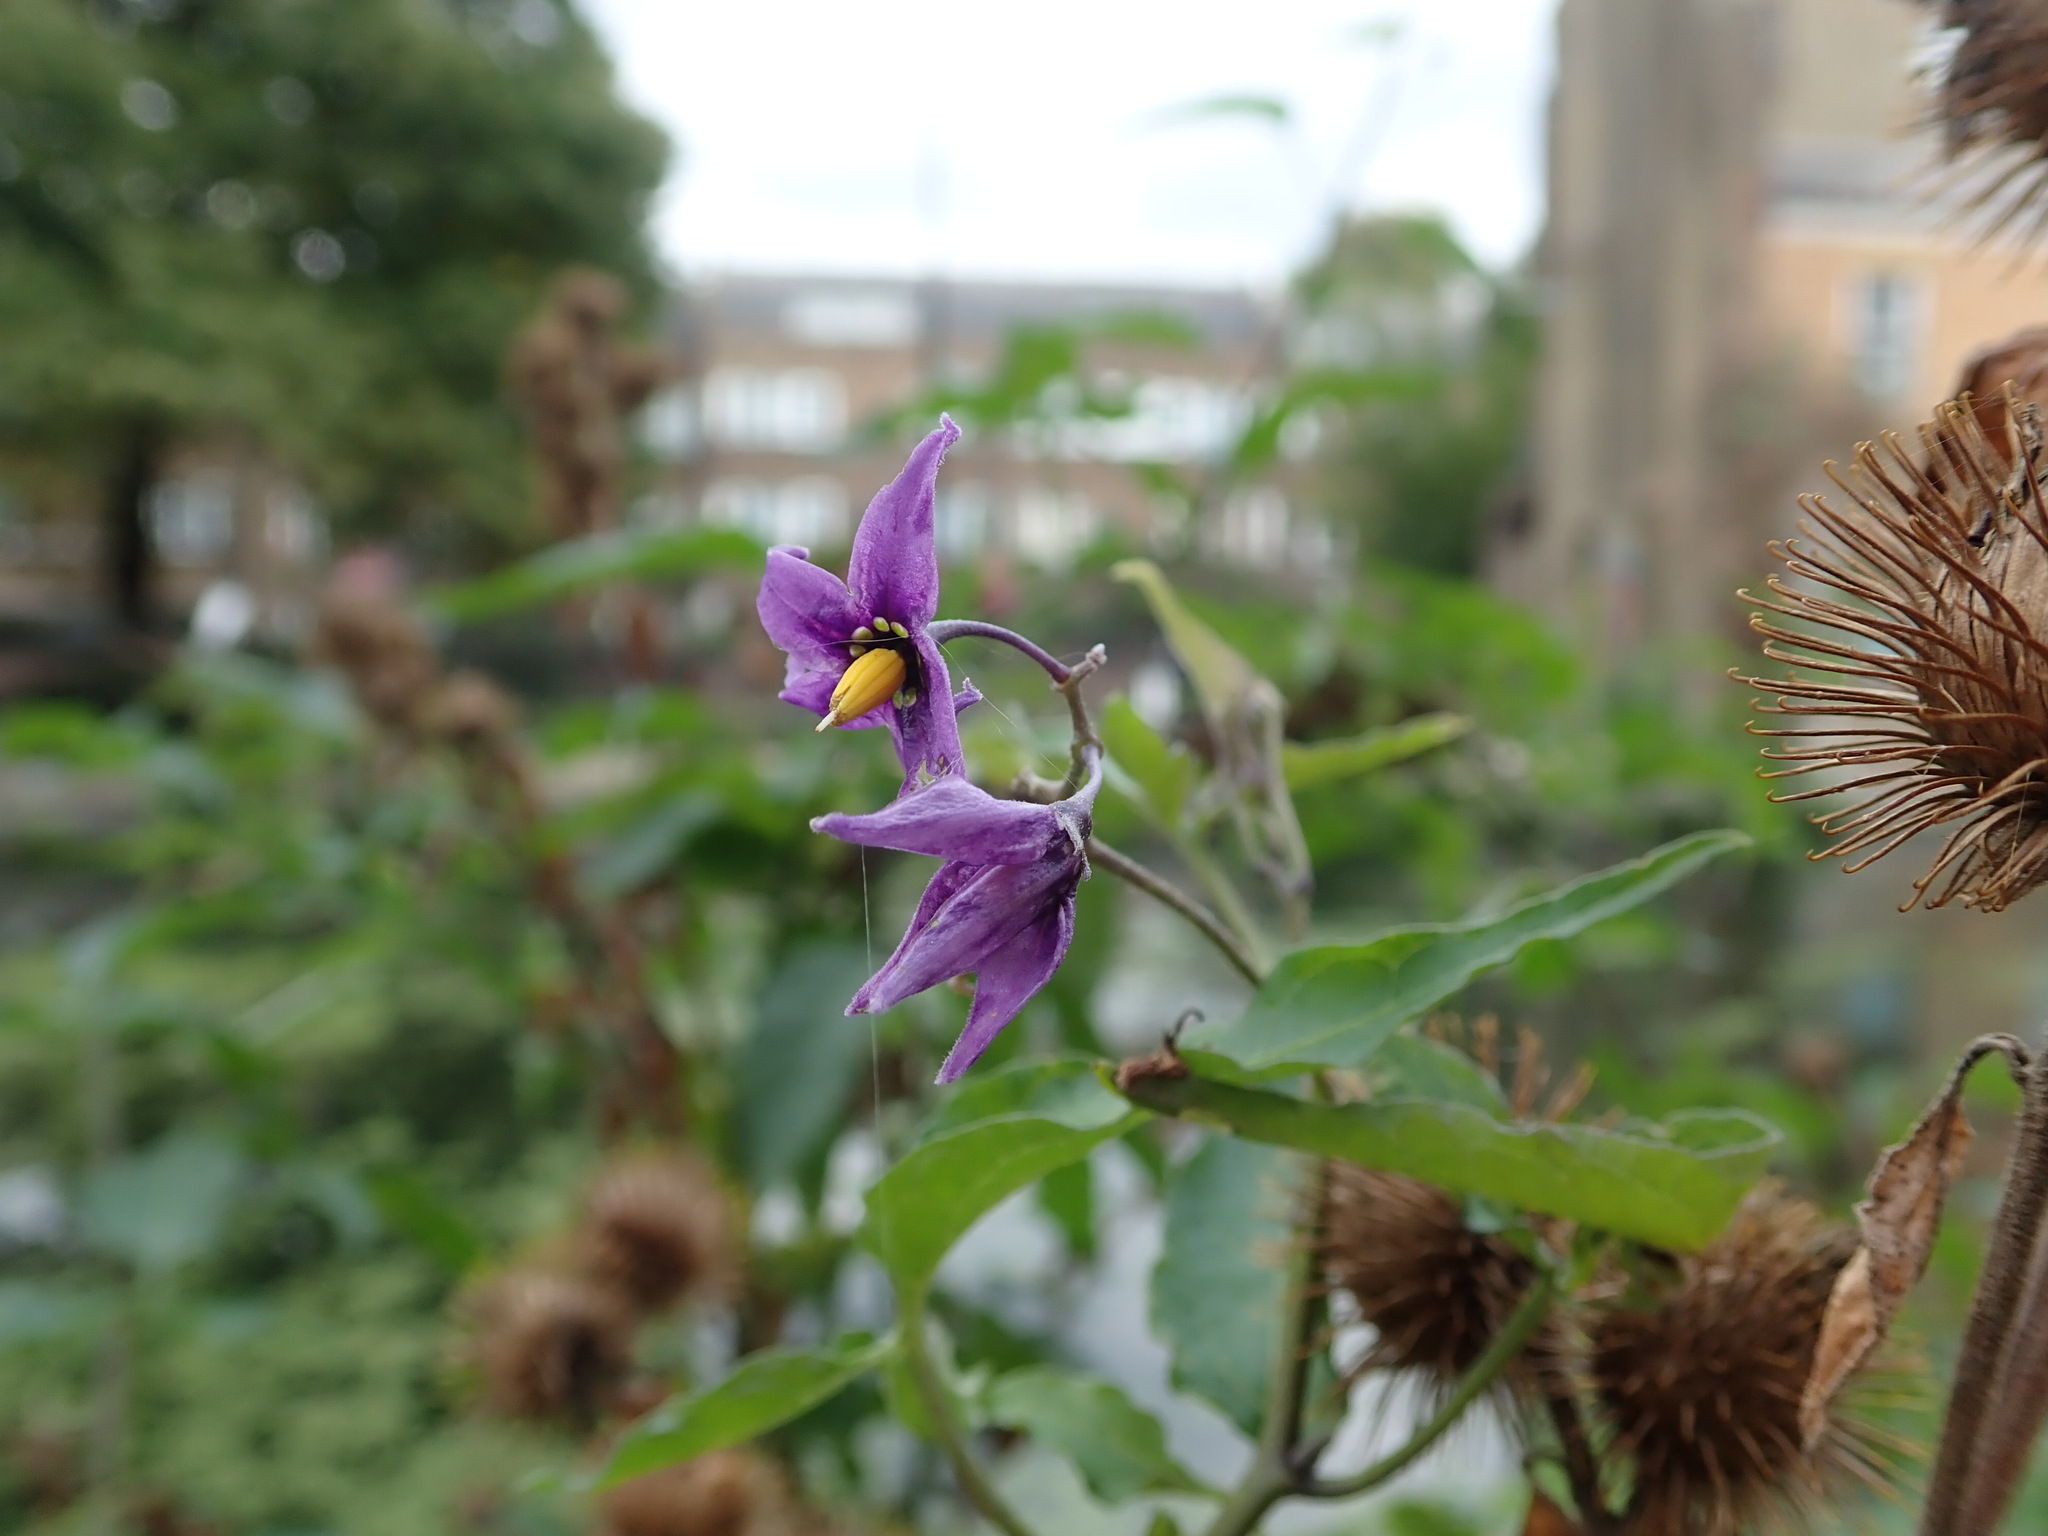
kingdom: Plantae
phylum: Tracheophyta
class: Magnoliopsida
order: Solanales
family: Solanaceae
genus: Solanum
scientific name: Solanum dulcamara
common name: Climbing nightshade
